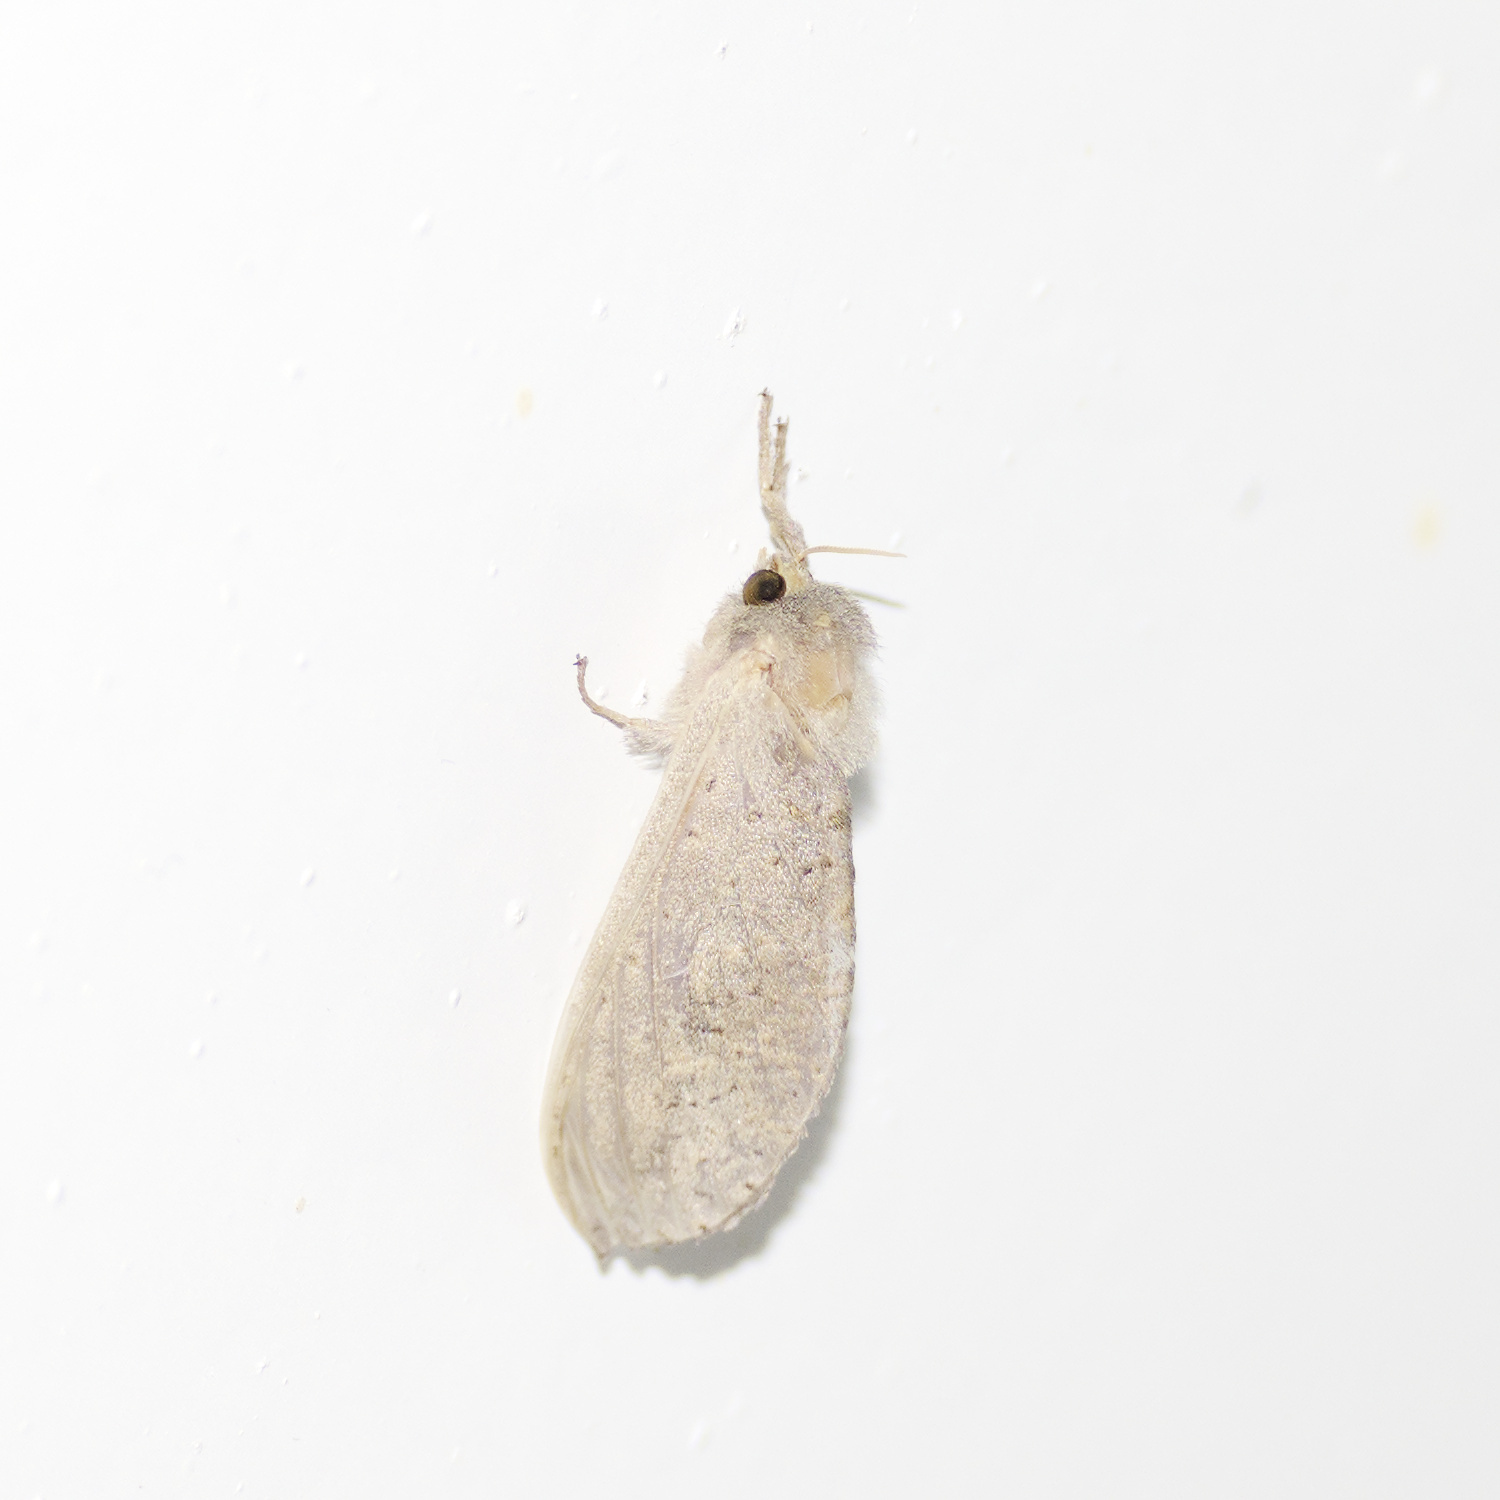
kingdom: Animalia
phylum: Arthropoda
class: Insecta
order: Lepidoptera
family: Hepialidae
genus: Elhamma
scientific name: Elhamma australasiae
